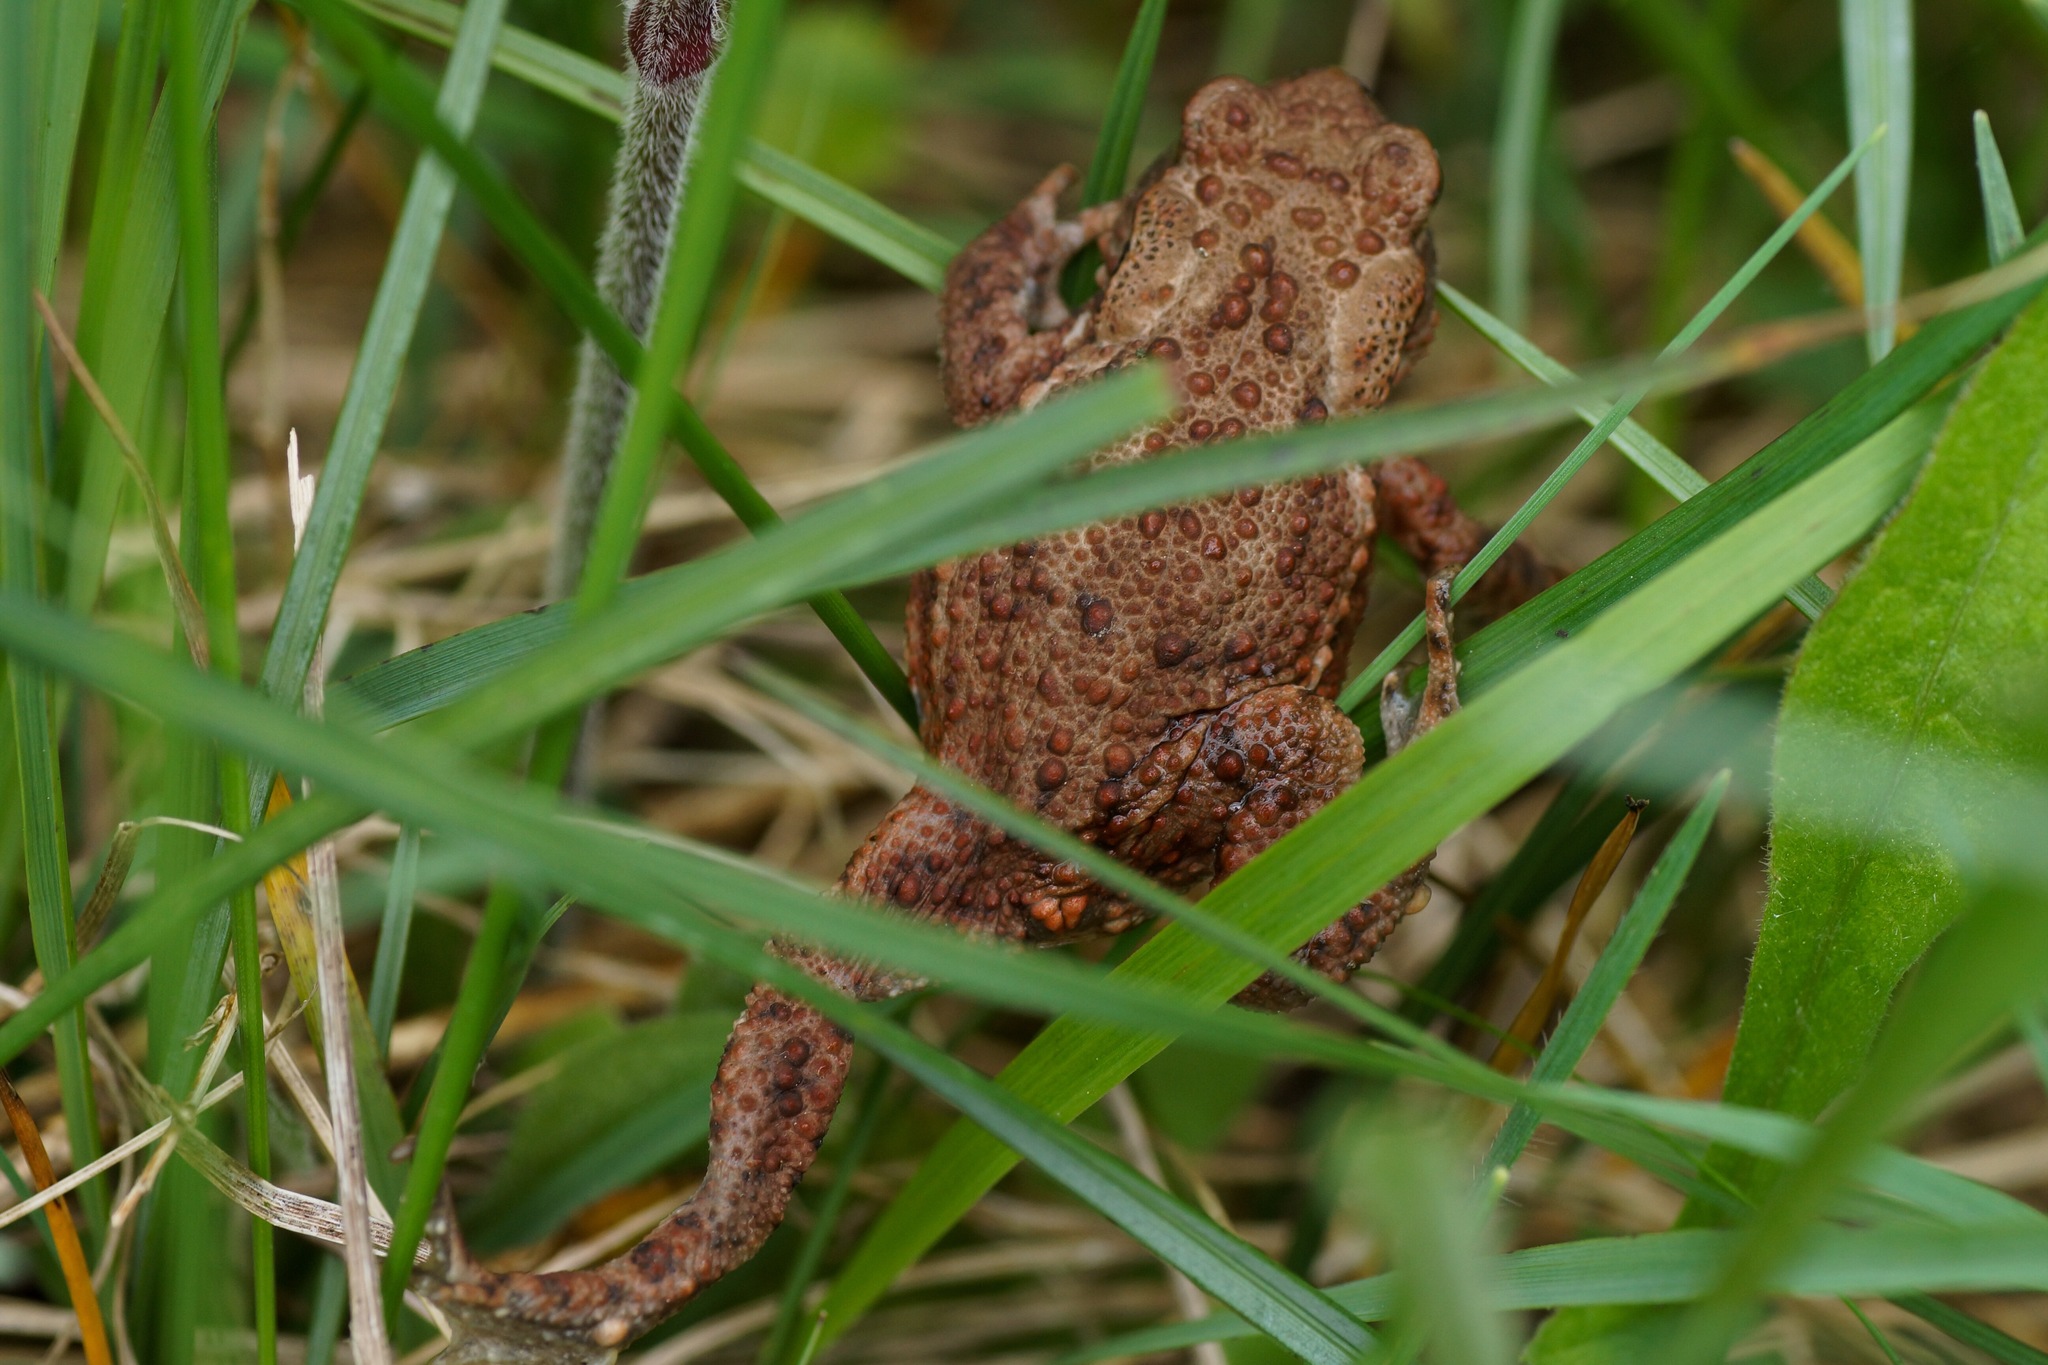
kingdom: Animalia
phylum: Chordata
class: Amphibia
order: Anura
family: Bufonidae
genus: Bufo
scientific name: Bufo bufo
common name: Common toad
